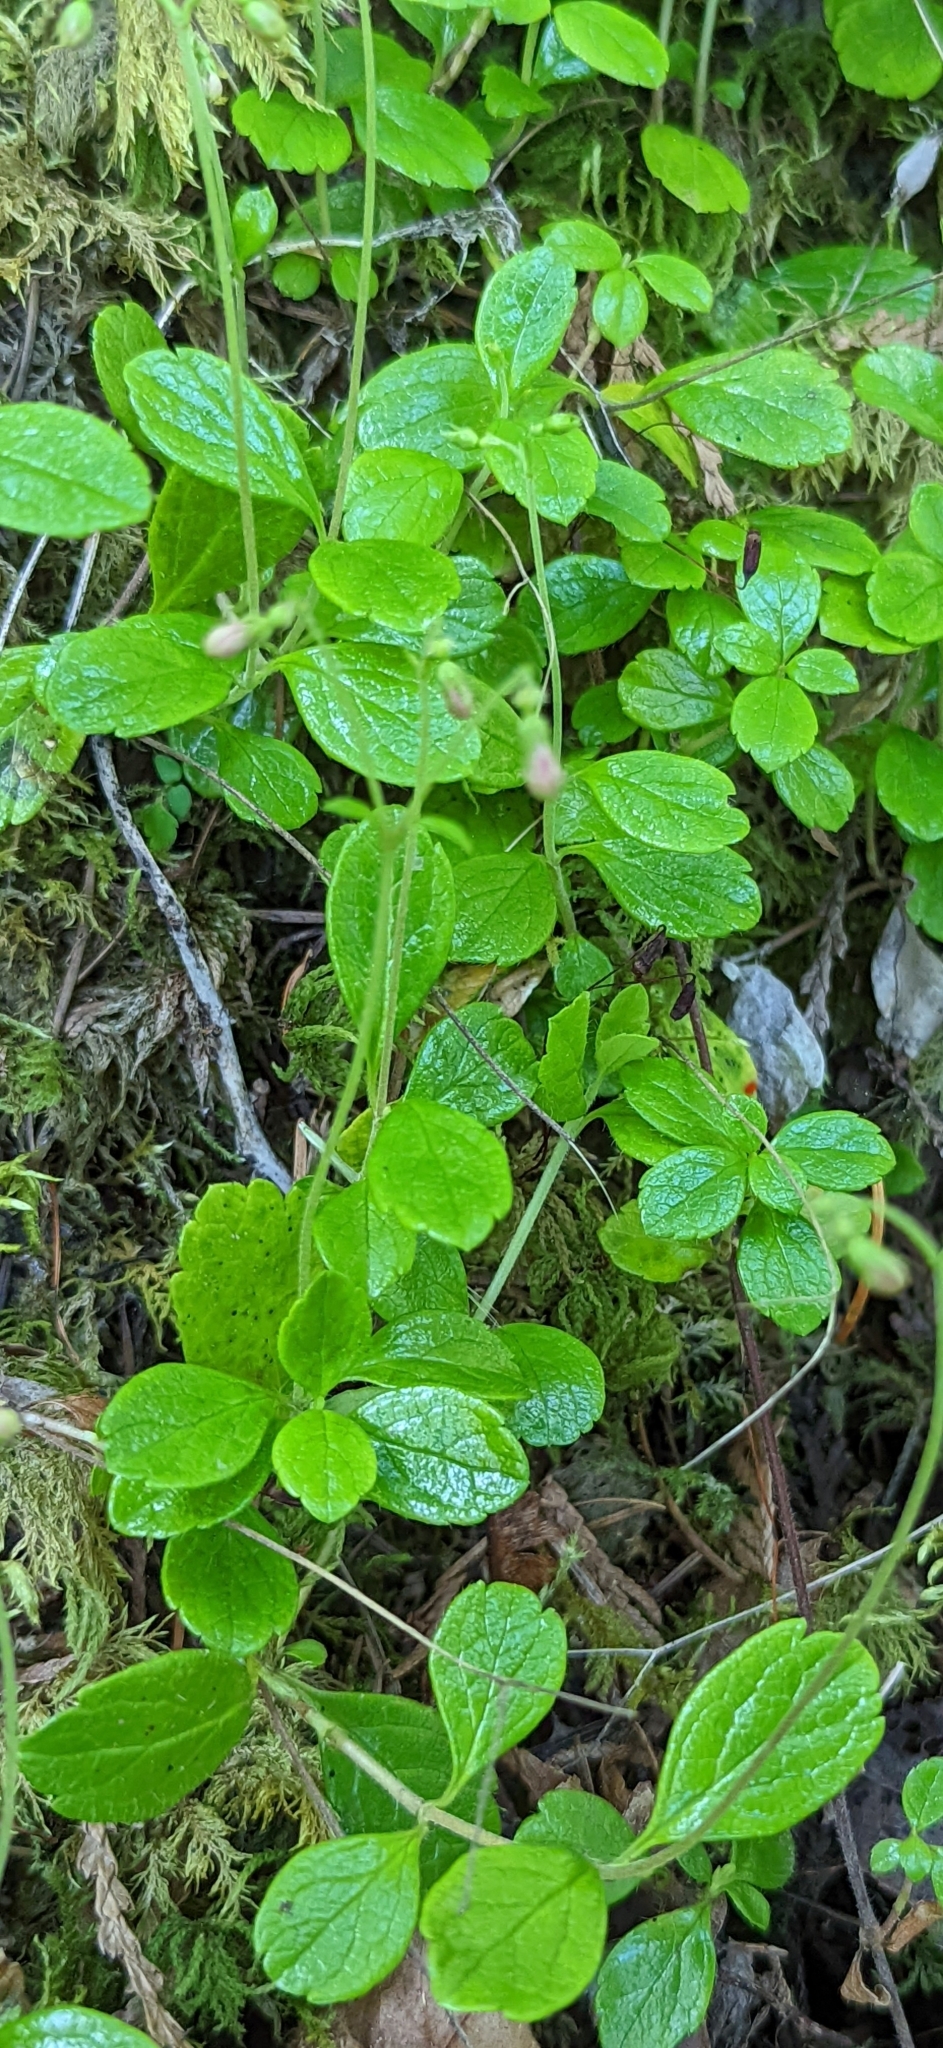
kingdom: Plantae
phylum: Tracheophyta
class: Magnoliopsida
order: Dipsacales
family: Caprifoliaceae
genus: Linnaea
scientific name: Linnaea borealis
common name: Twinflower
